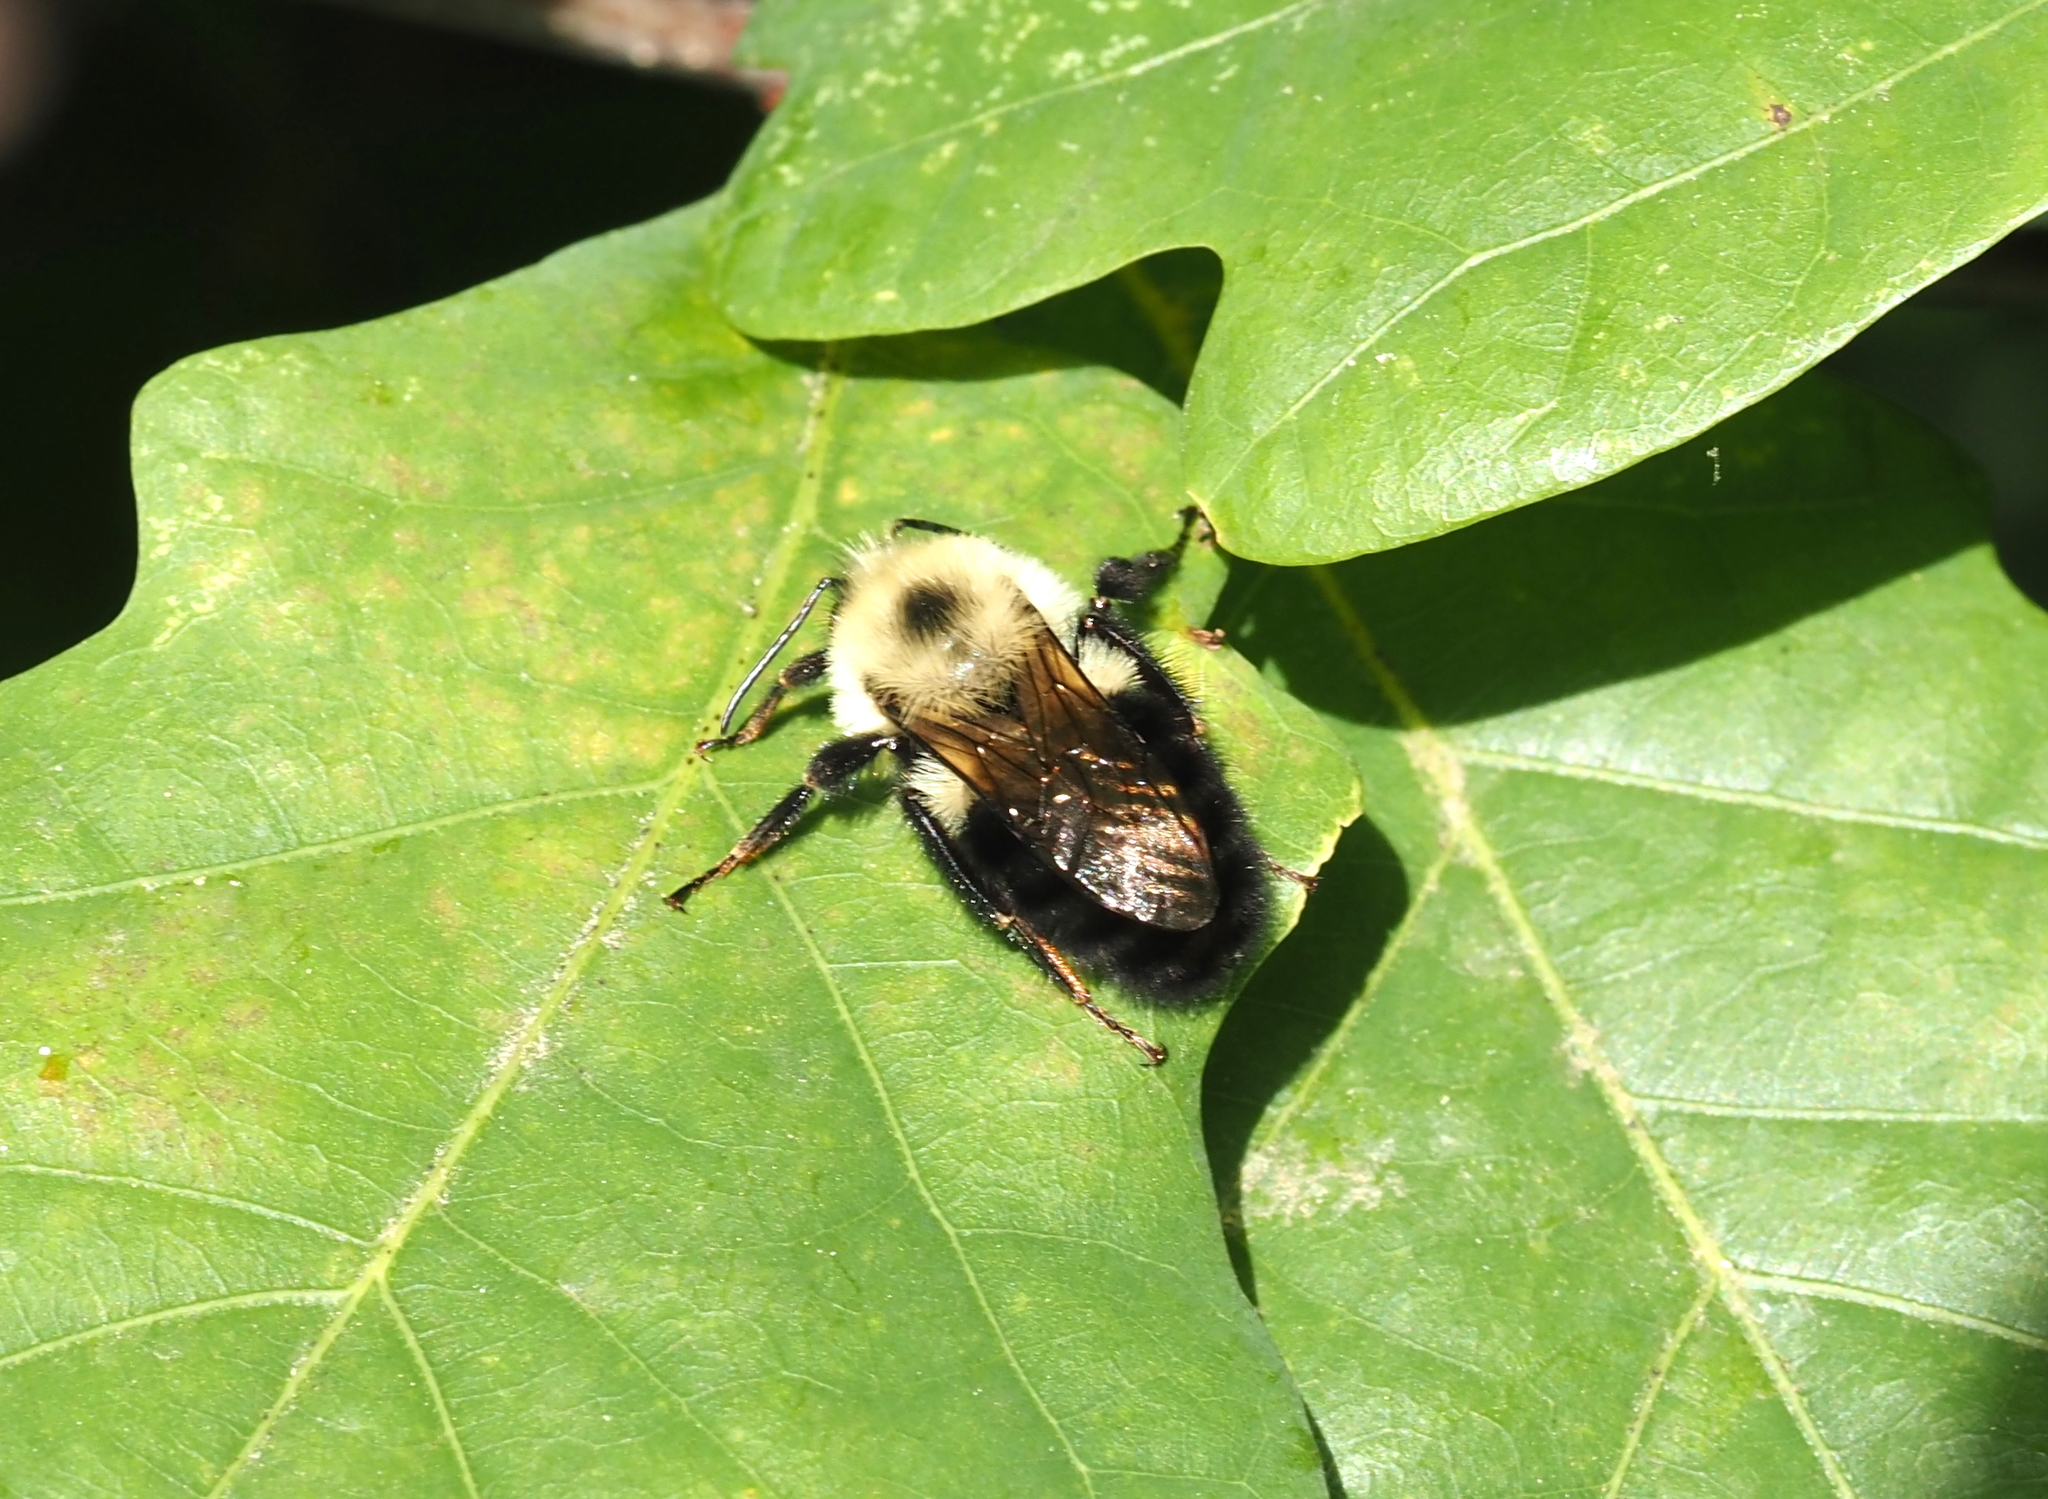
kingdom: Animalia
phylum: Arthropoda
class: Insecta
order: Hymenoptera
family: Apidae
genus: Bombus
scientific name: Bombus bimaculatus
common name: Two-spotted bumble bee
